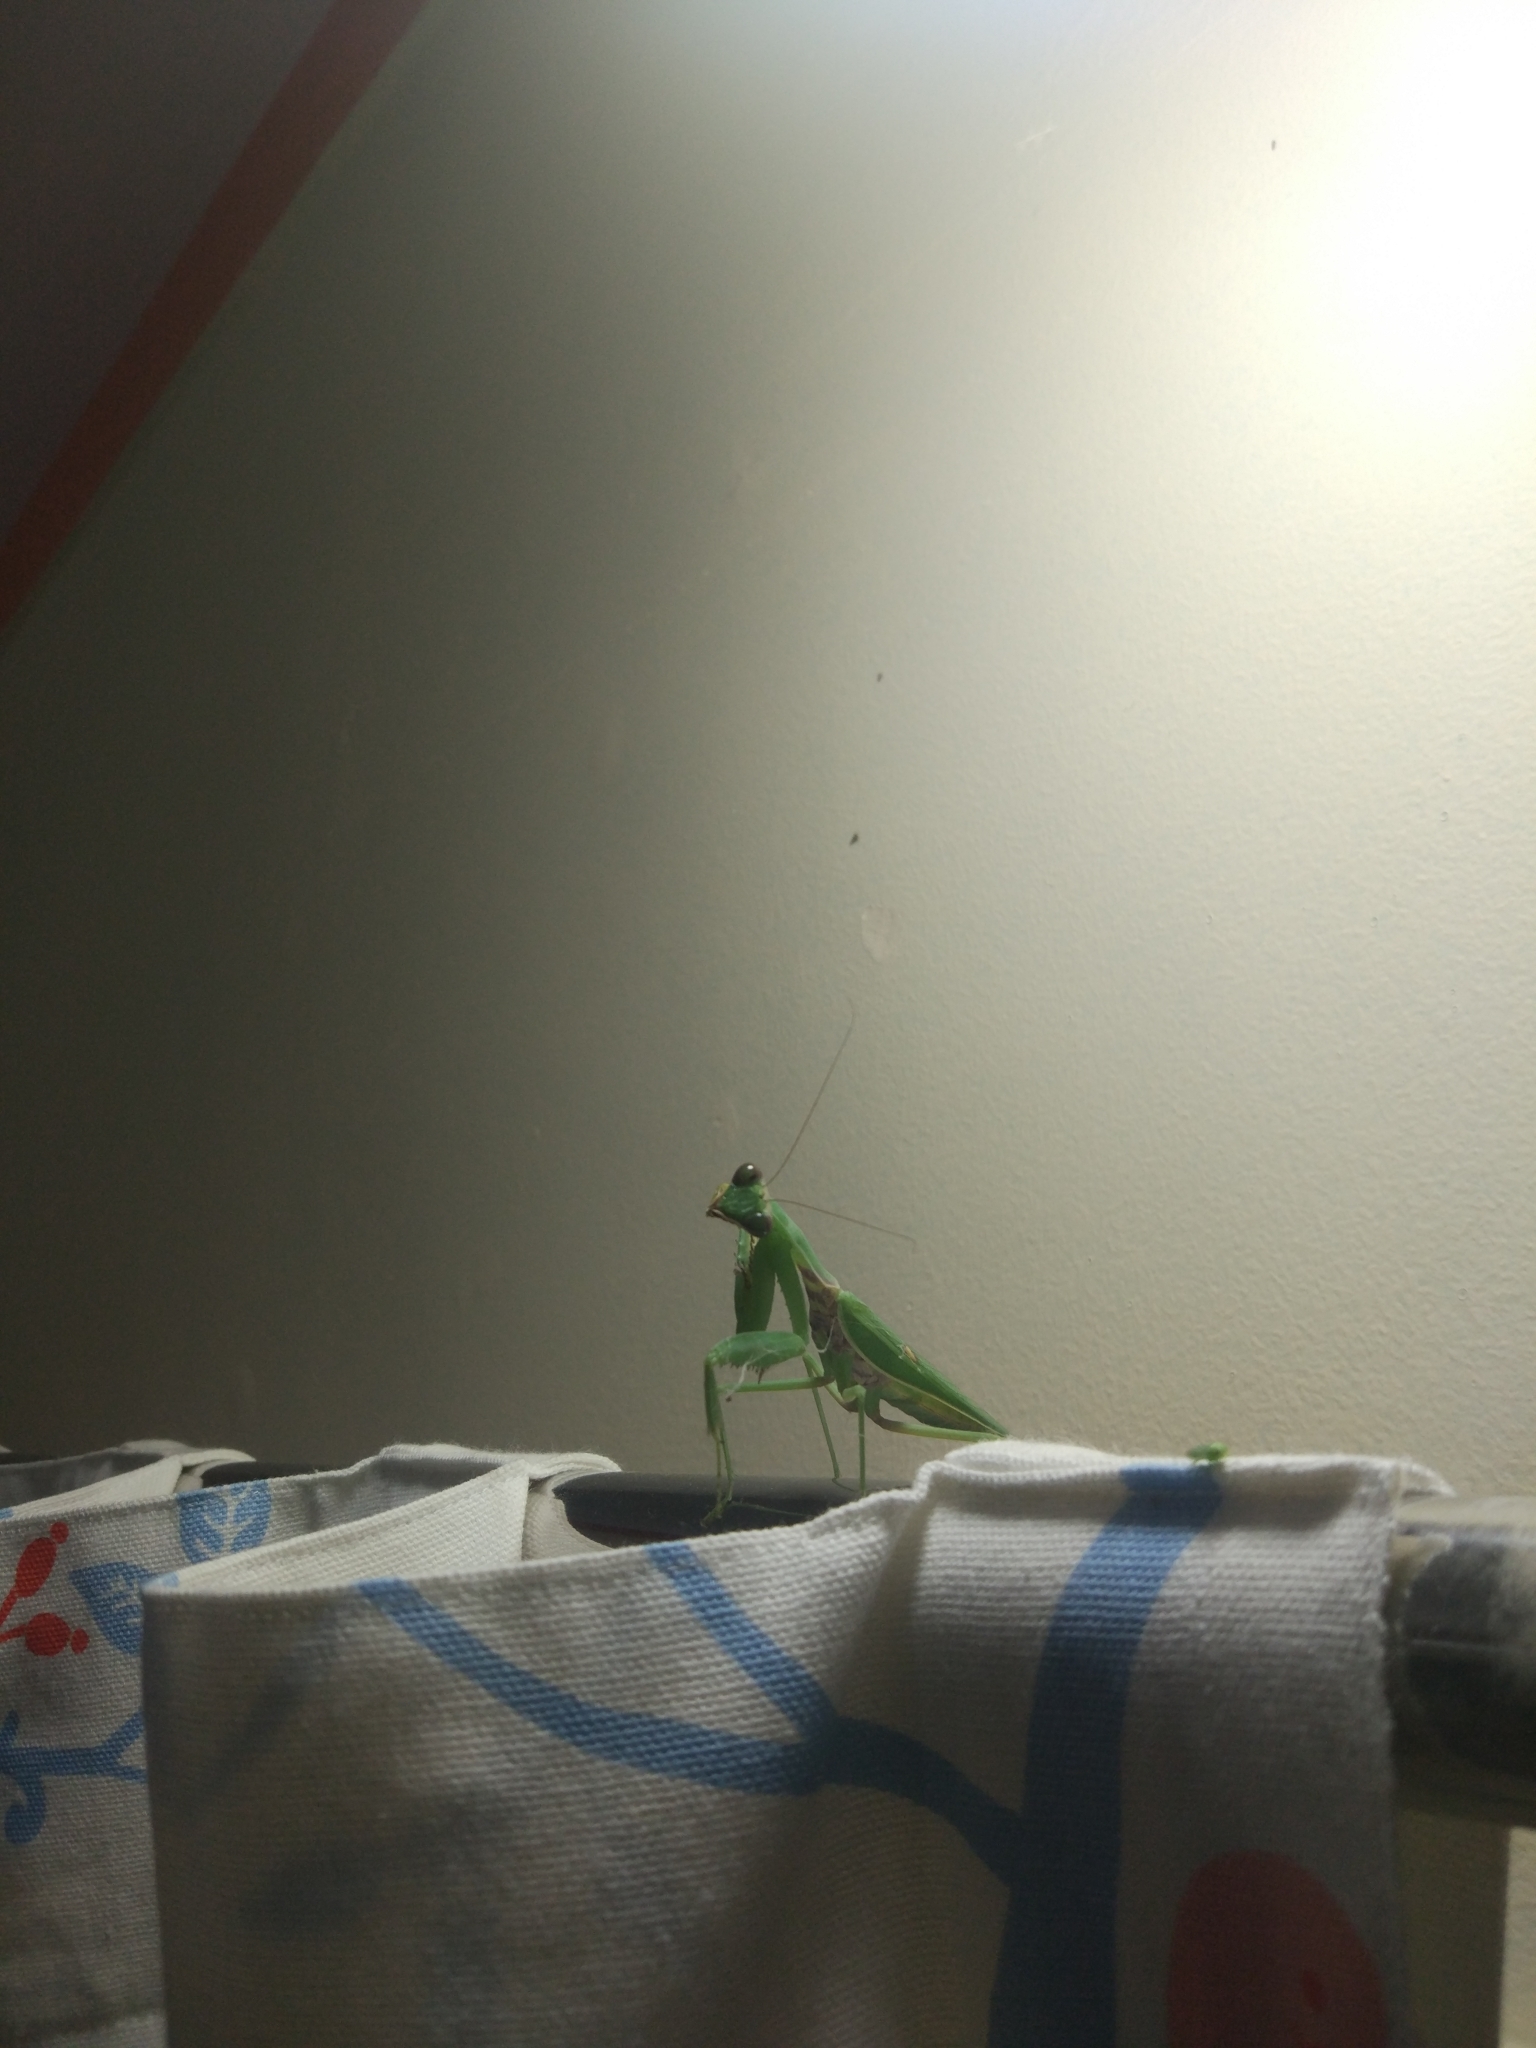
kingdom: Animalia
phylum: Arthropoda
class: Insecta
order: Mantodea
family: Mantidae
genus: Hierodula
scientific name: Hierodula tenuidentata
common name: Giant asian mantis
